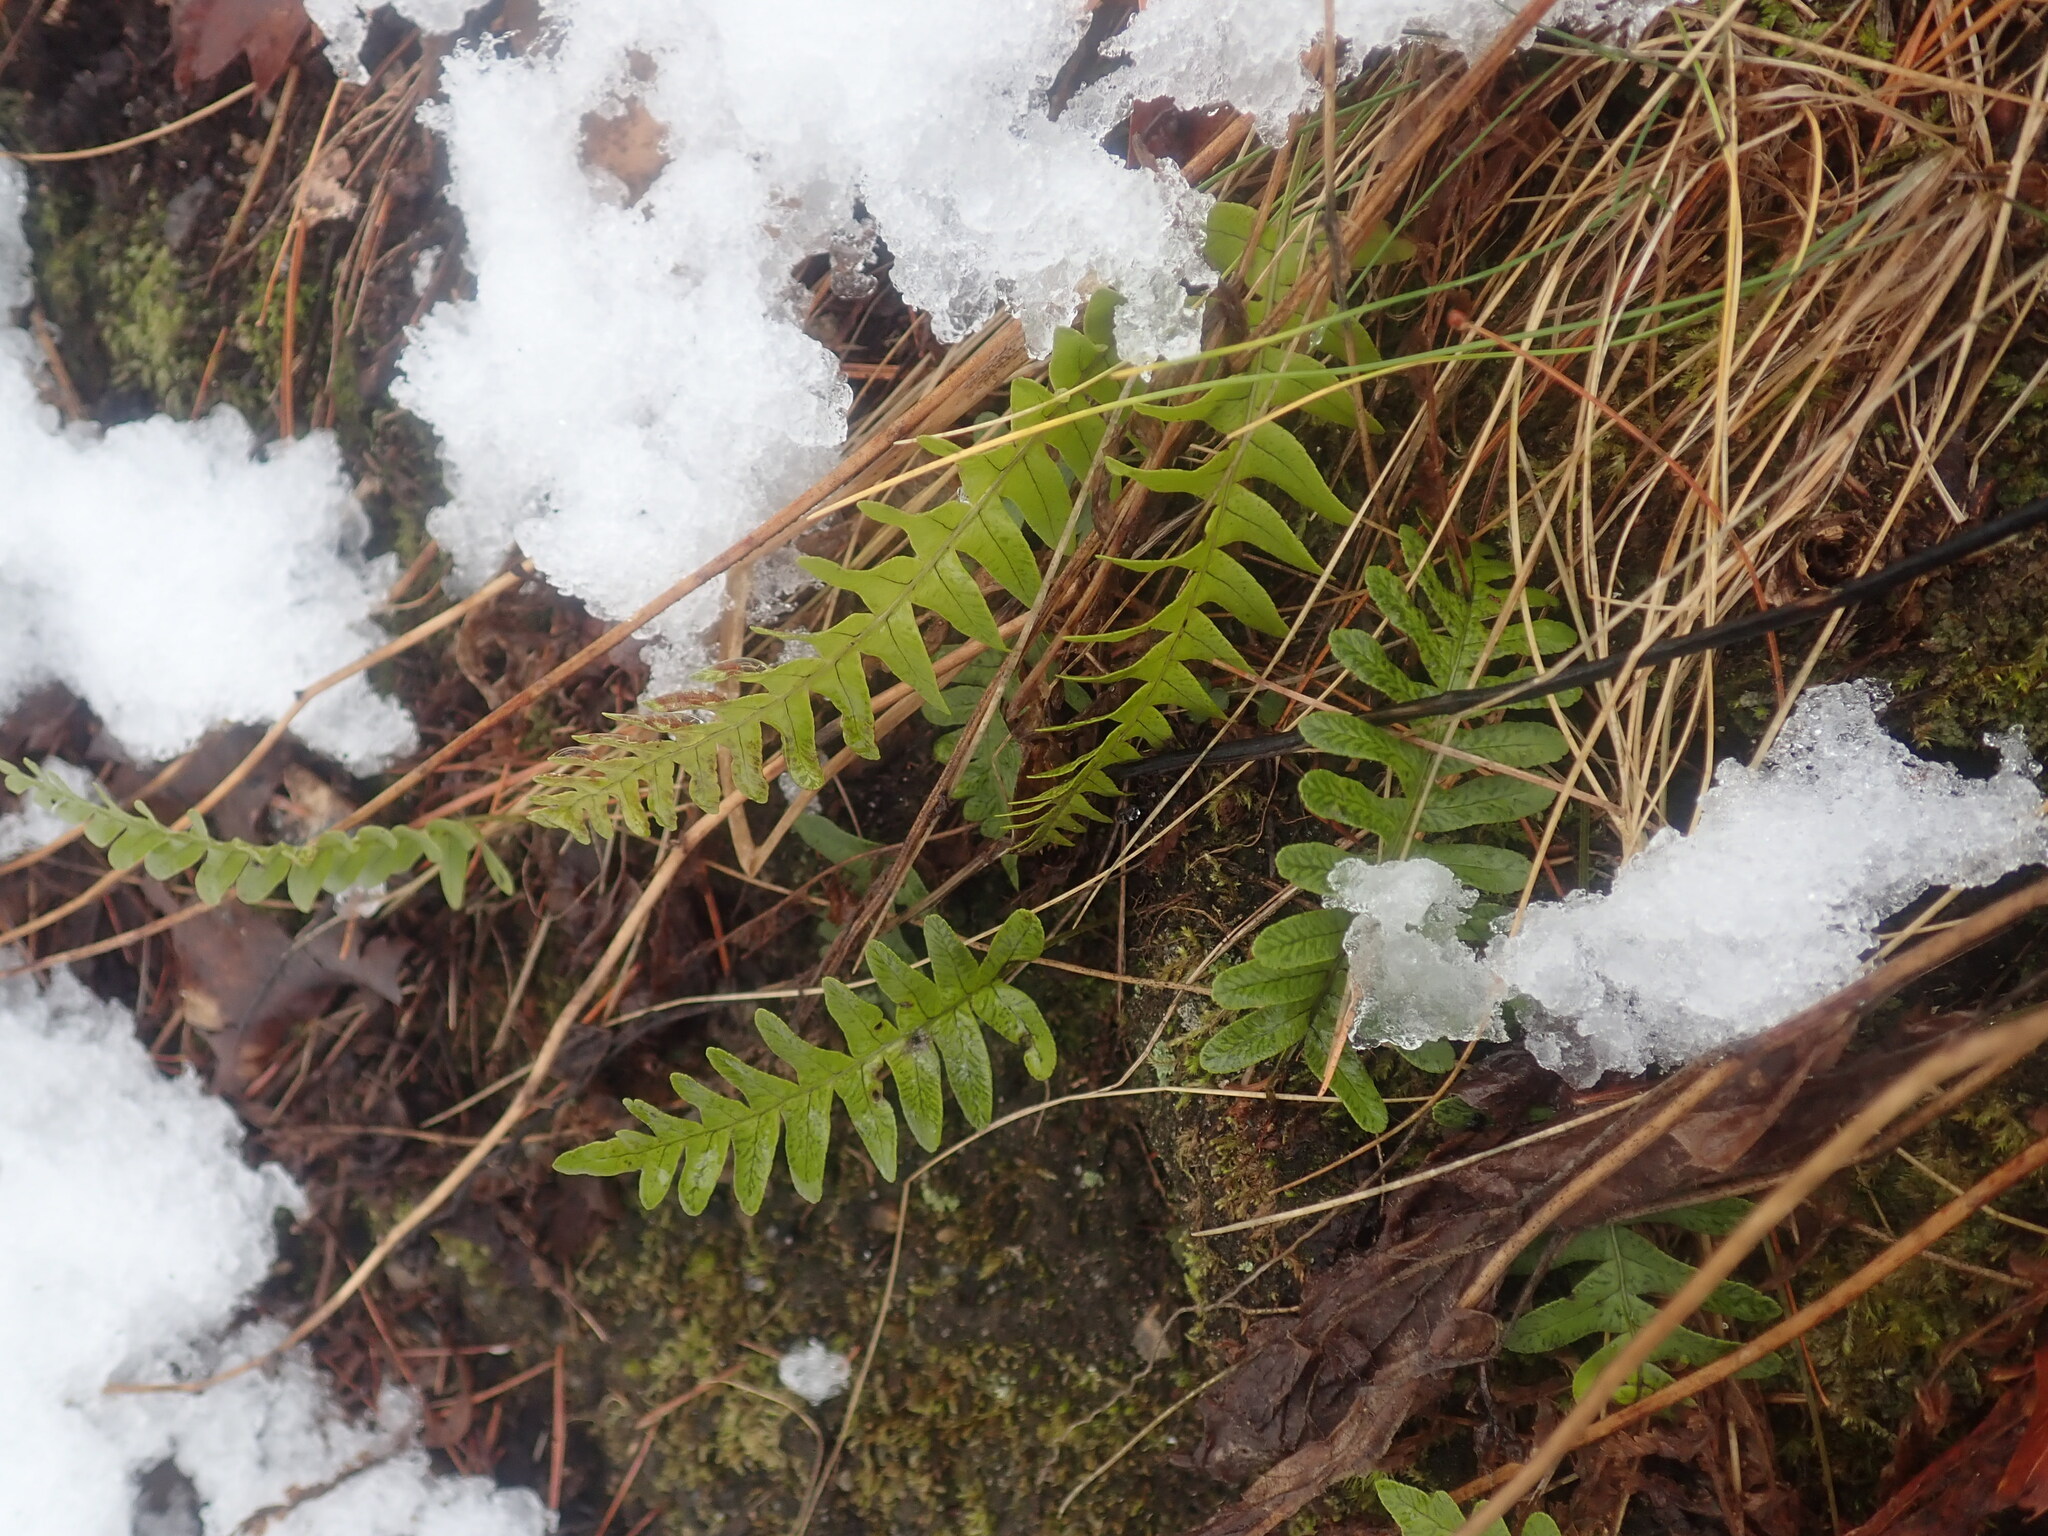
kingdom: Plantae
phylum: Tracheophyta
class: Polypodiopsida
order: Polypodiales
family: Polypodiaceae
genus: Polypodium
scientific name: Polypodium
